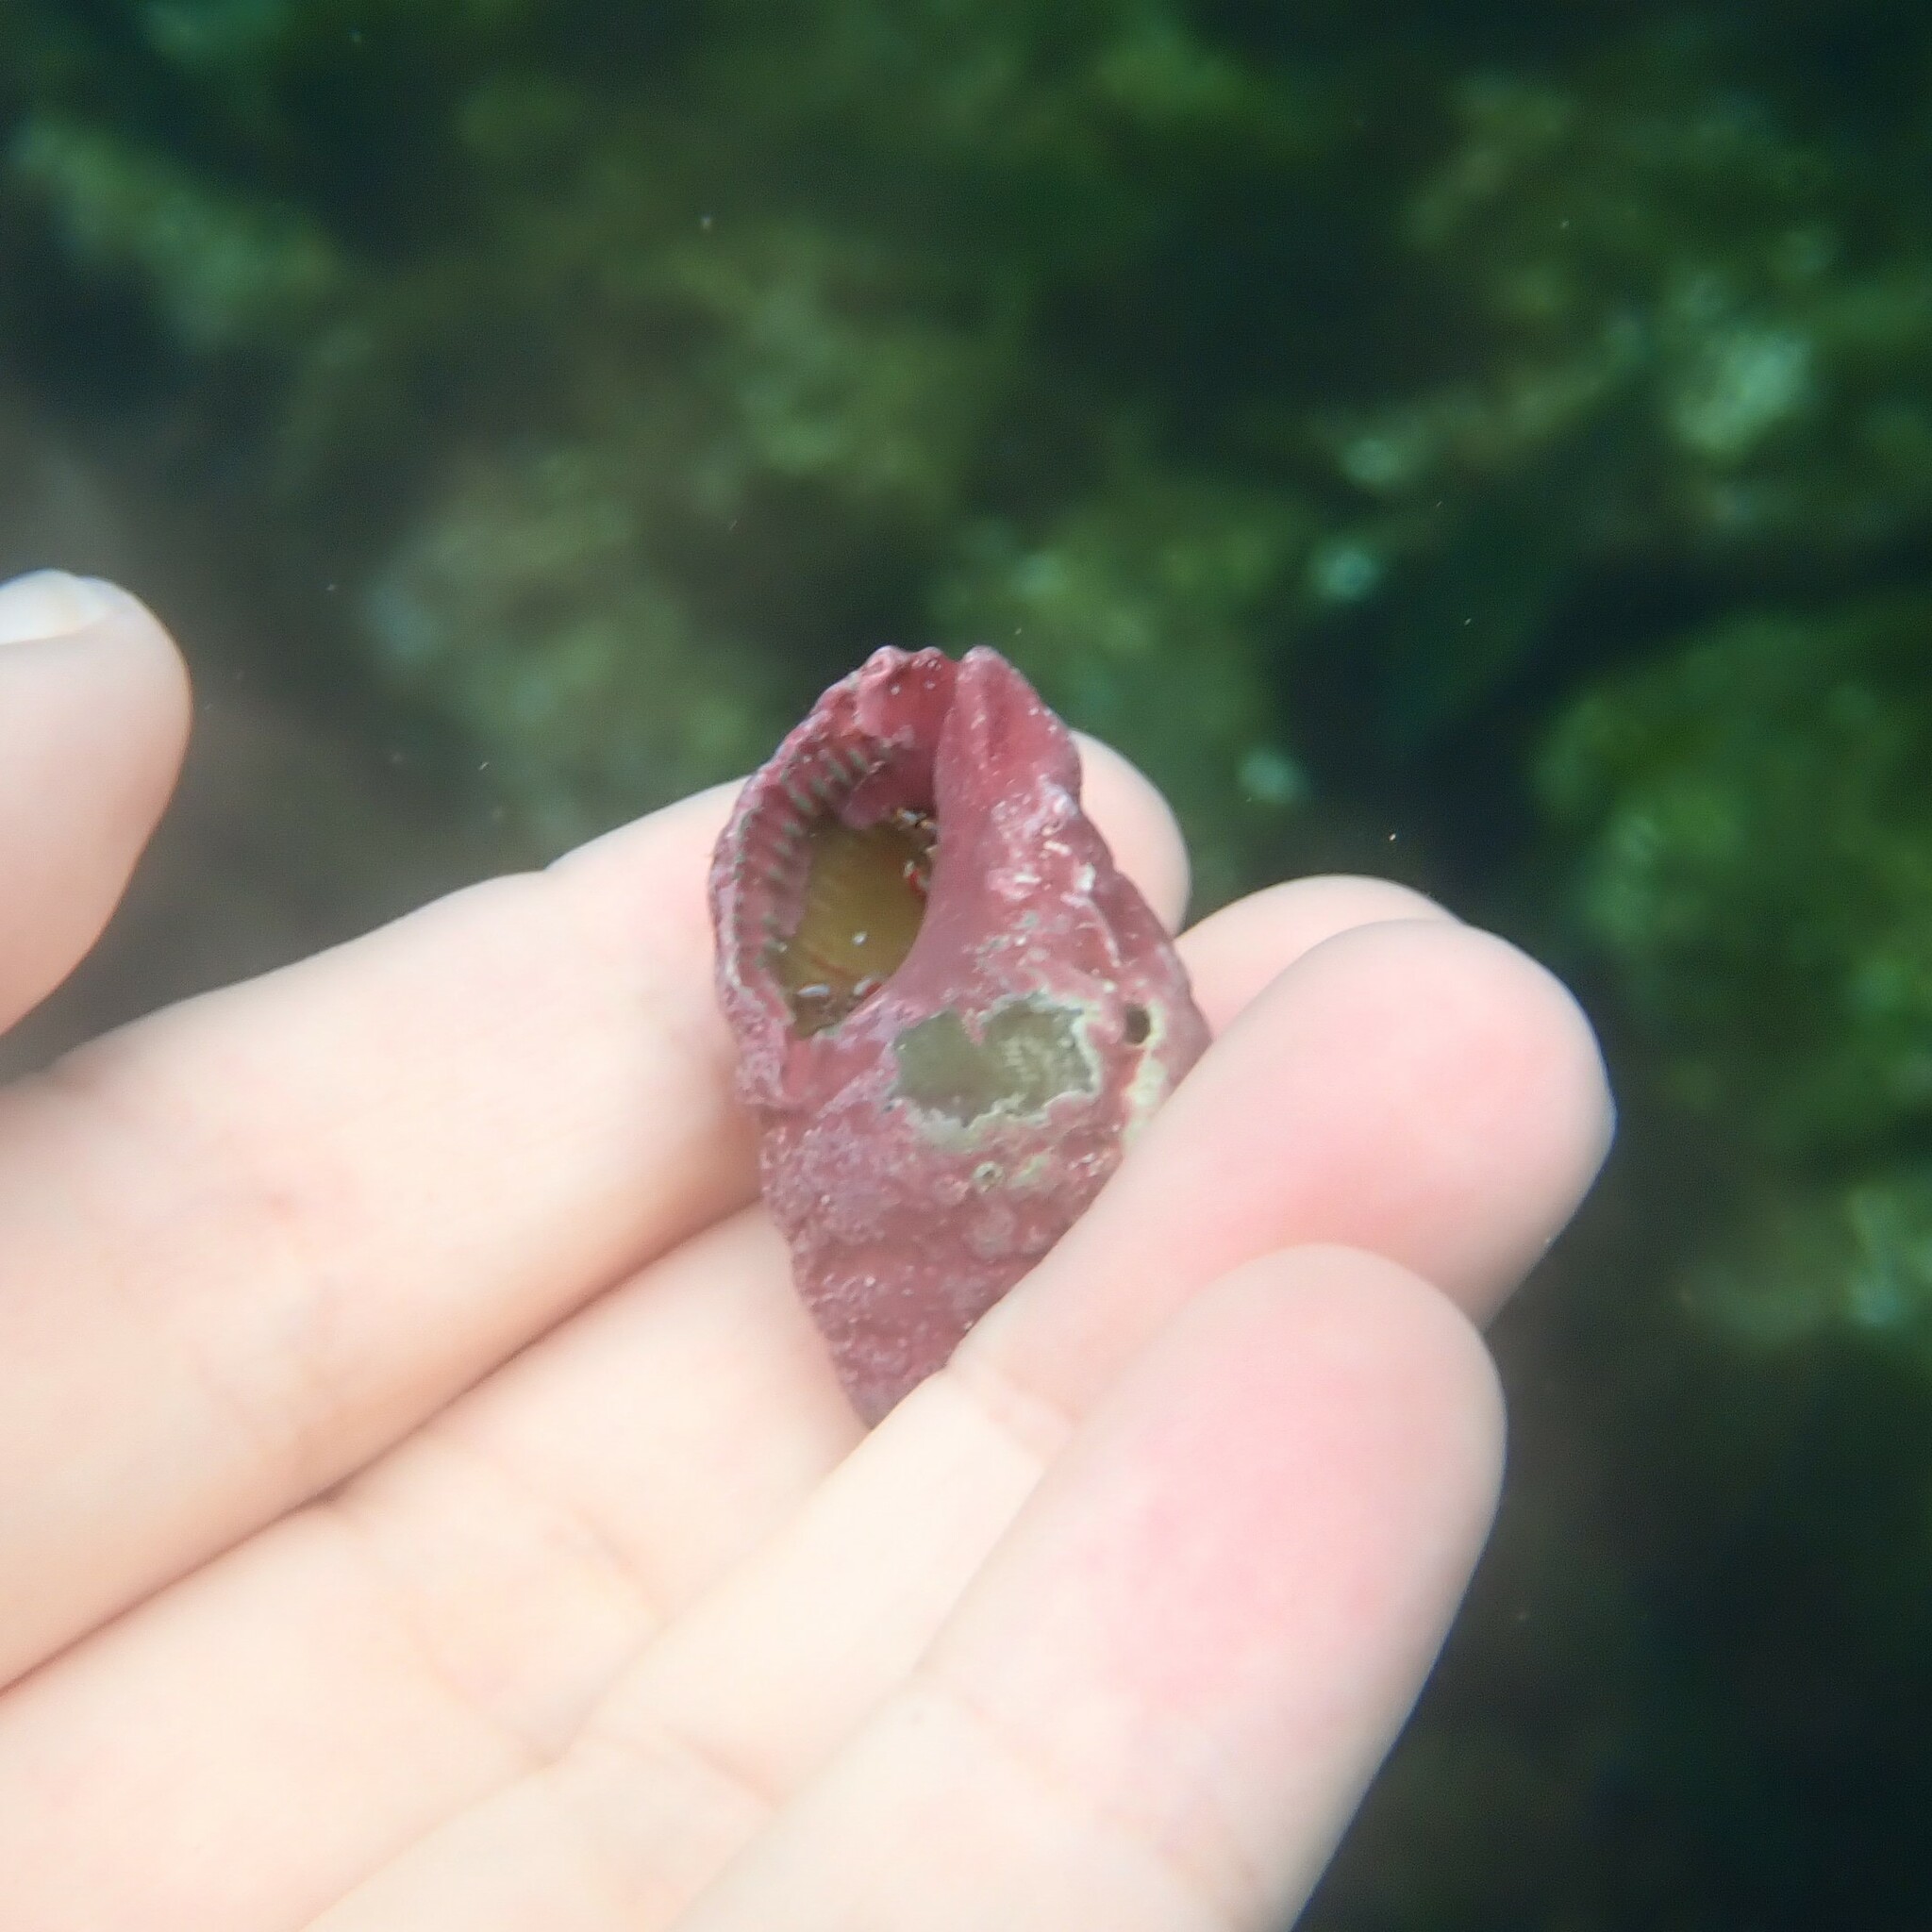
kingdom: Animalia
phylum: Mollusca
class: Gastropoda
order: Neogastropoda
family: Muricidae
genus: Stramonita
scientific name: Stramonita haemastoma
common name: Florida dog winkle
